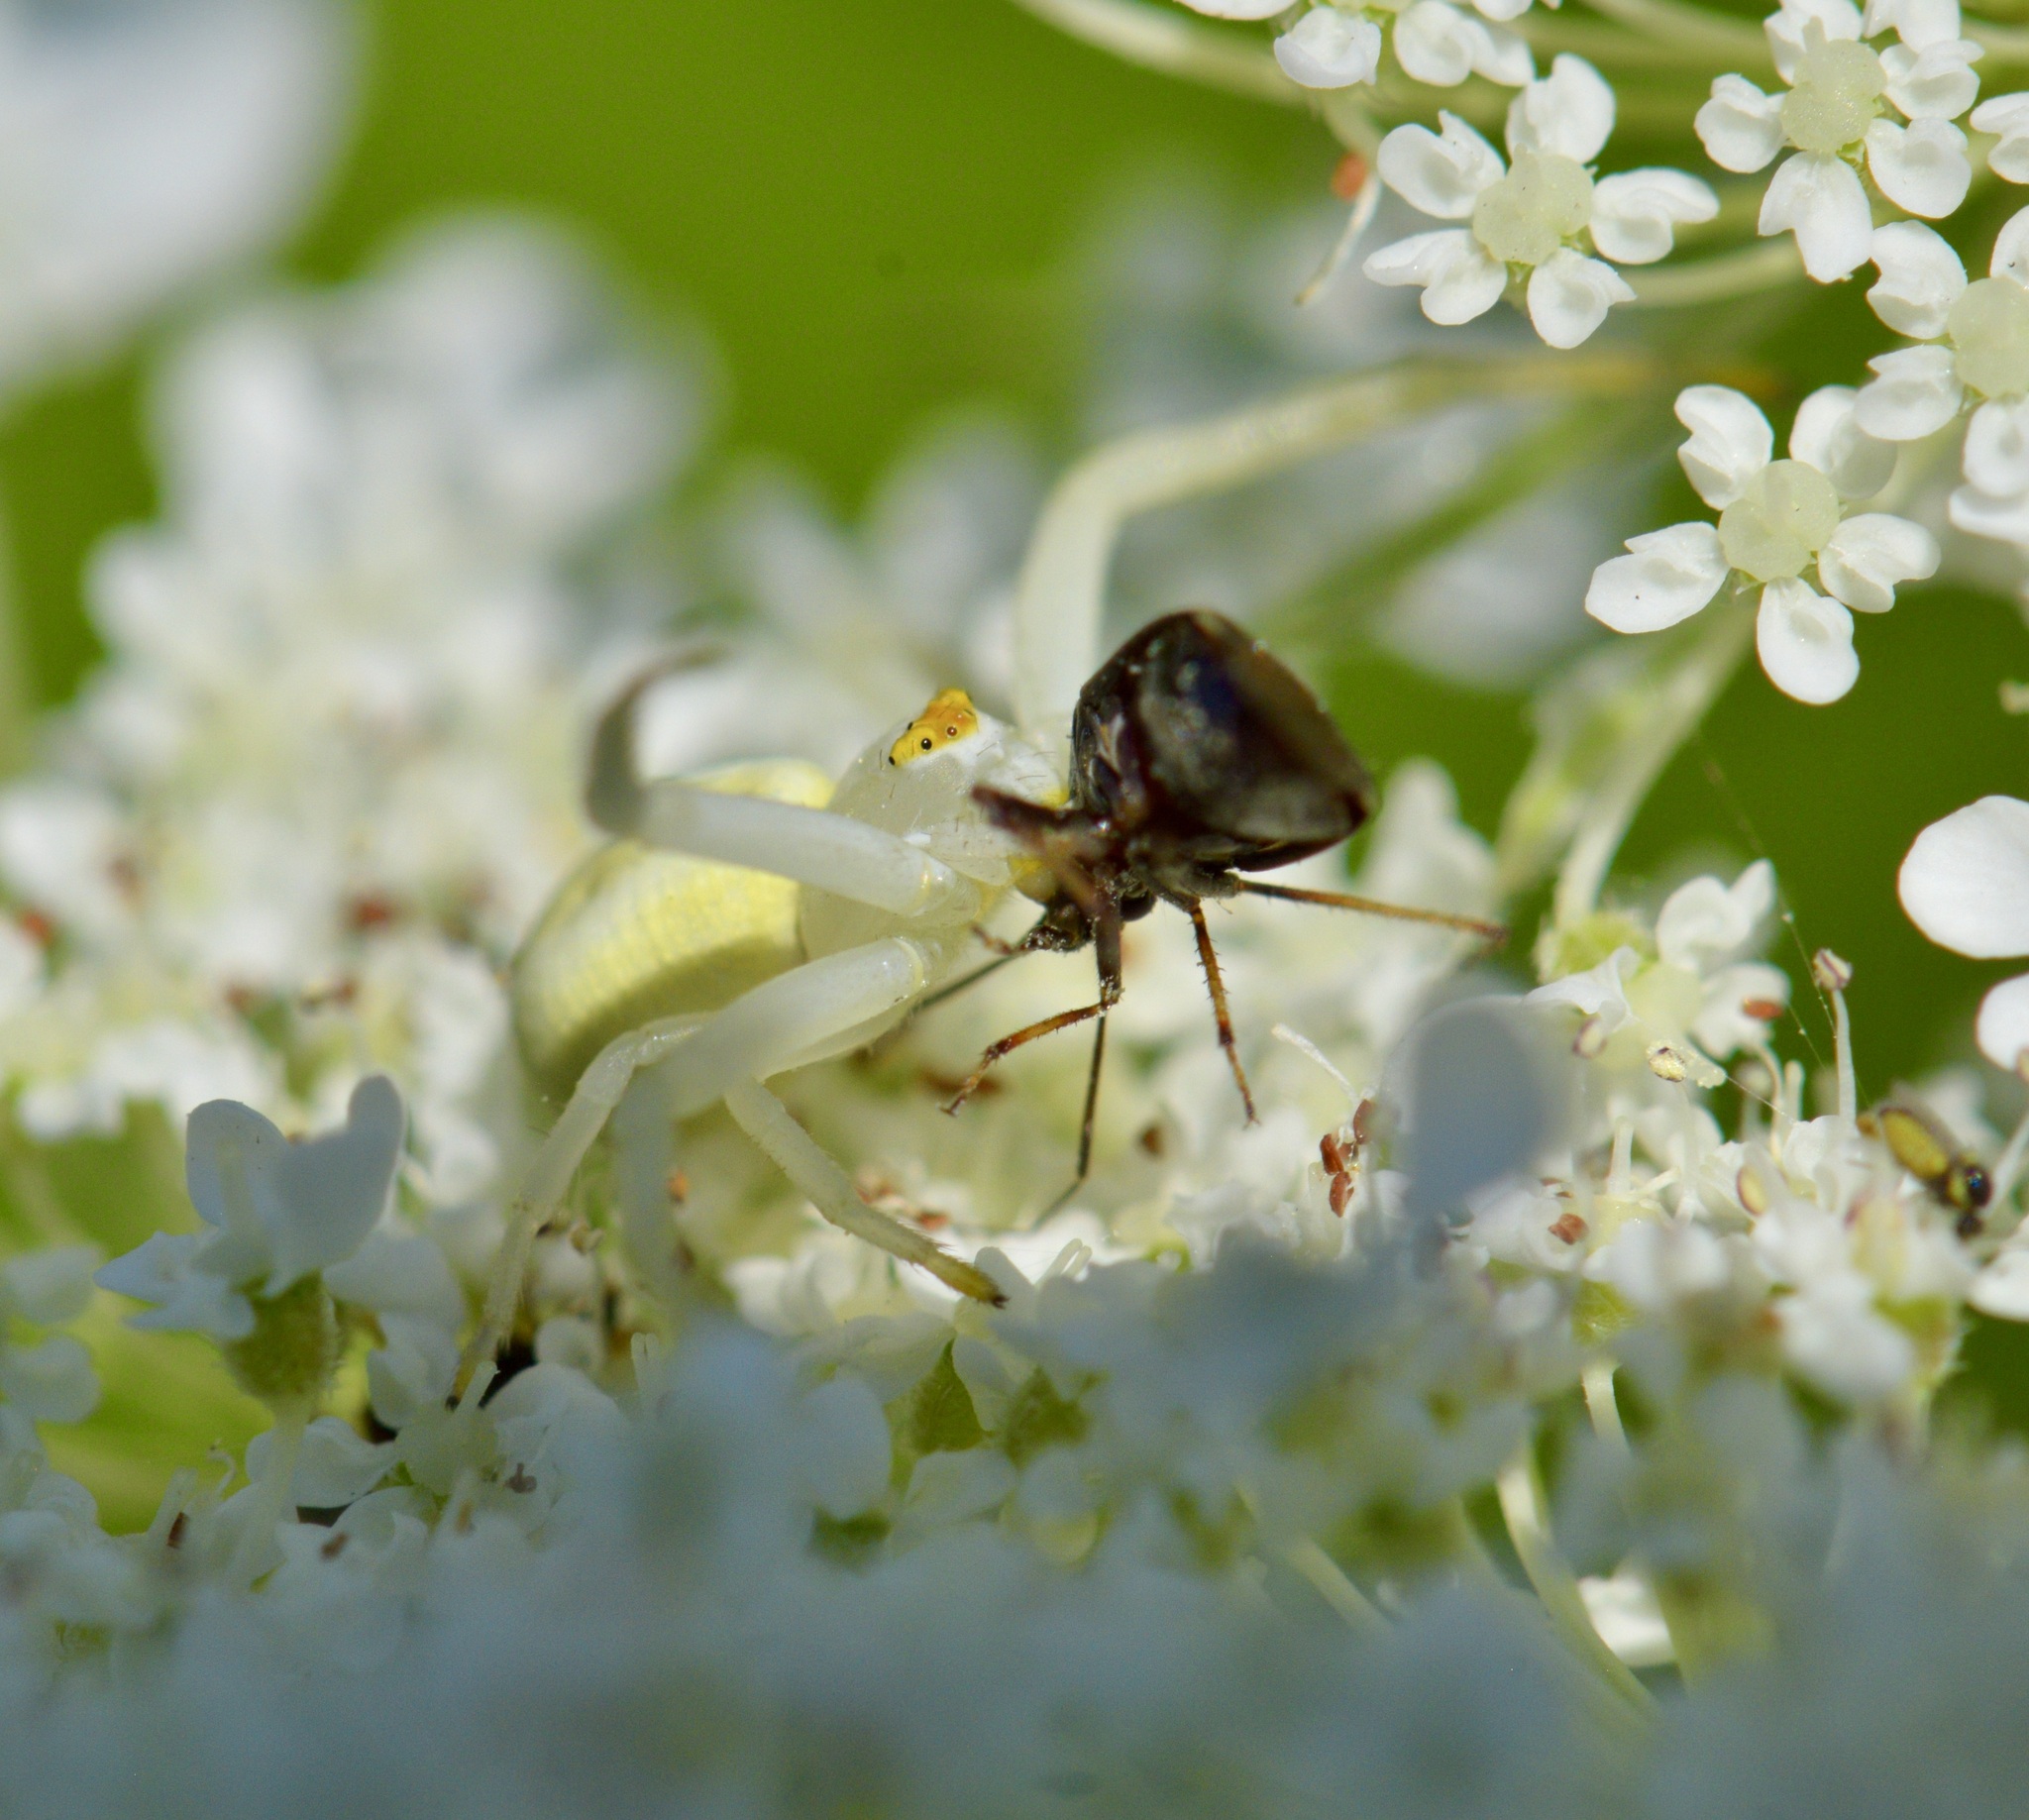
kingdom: Animalia
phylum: Arthropoda
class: Arachnida
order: Araneae
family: Thomisidae
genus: Misumena
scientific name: Misumena vatia
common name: Goldenrod crab spider
